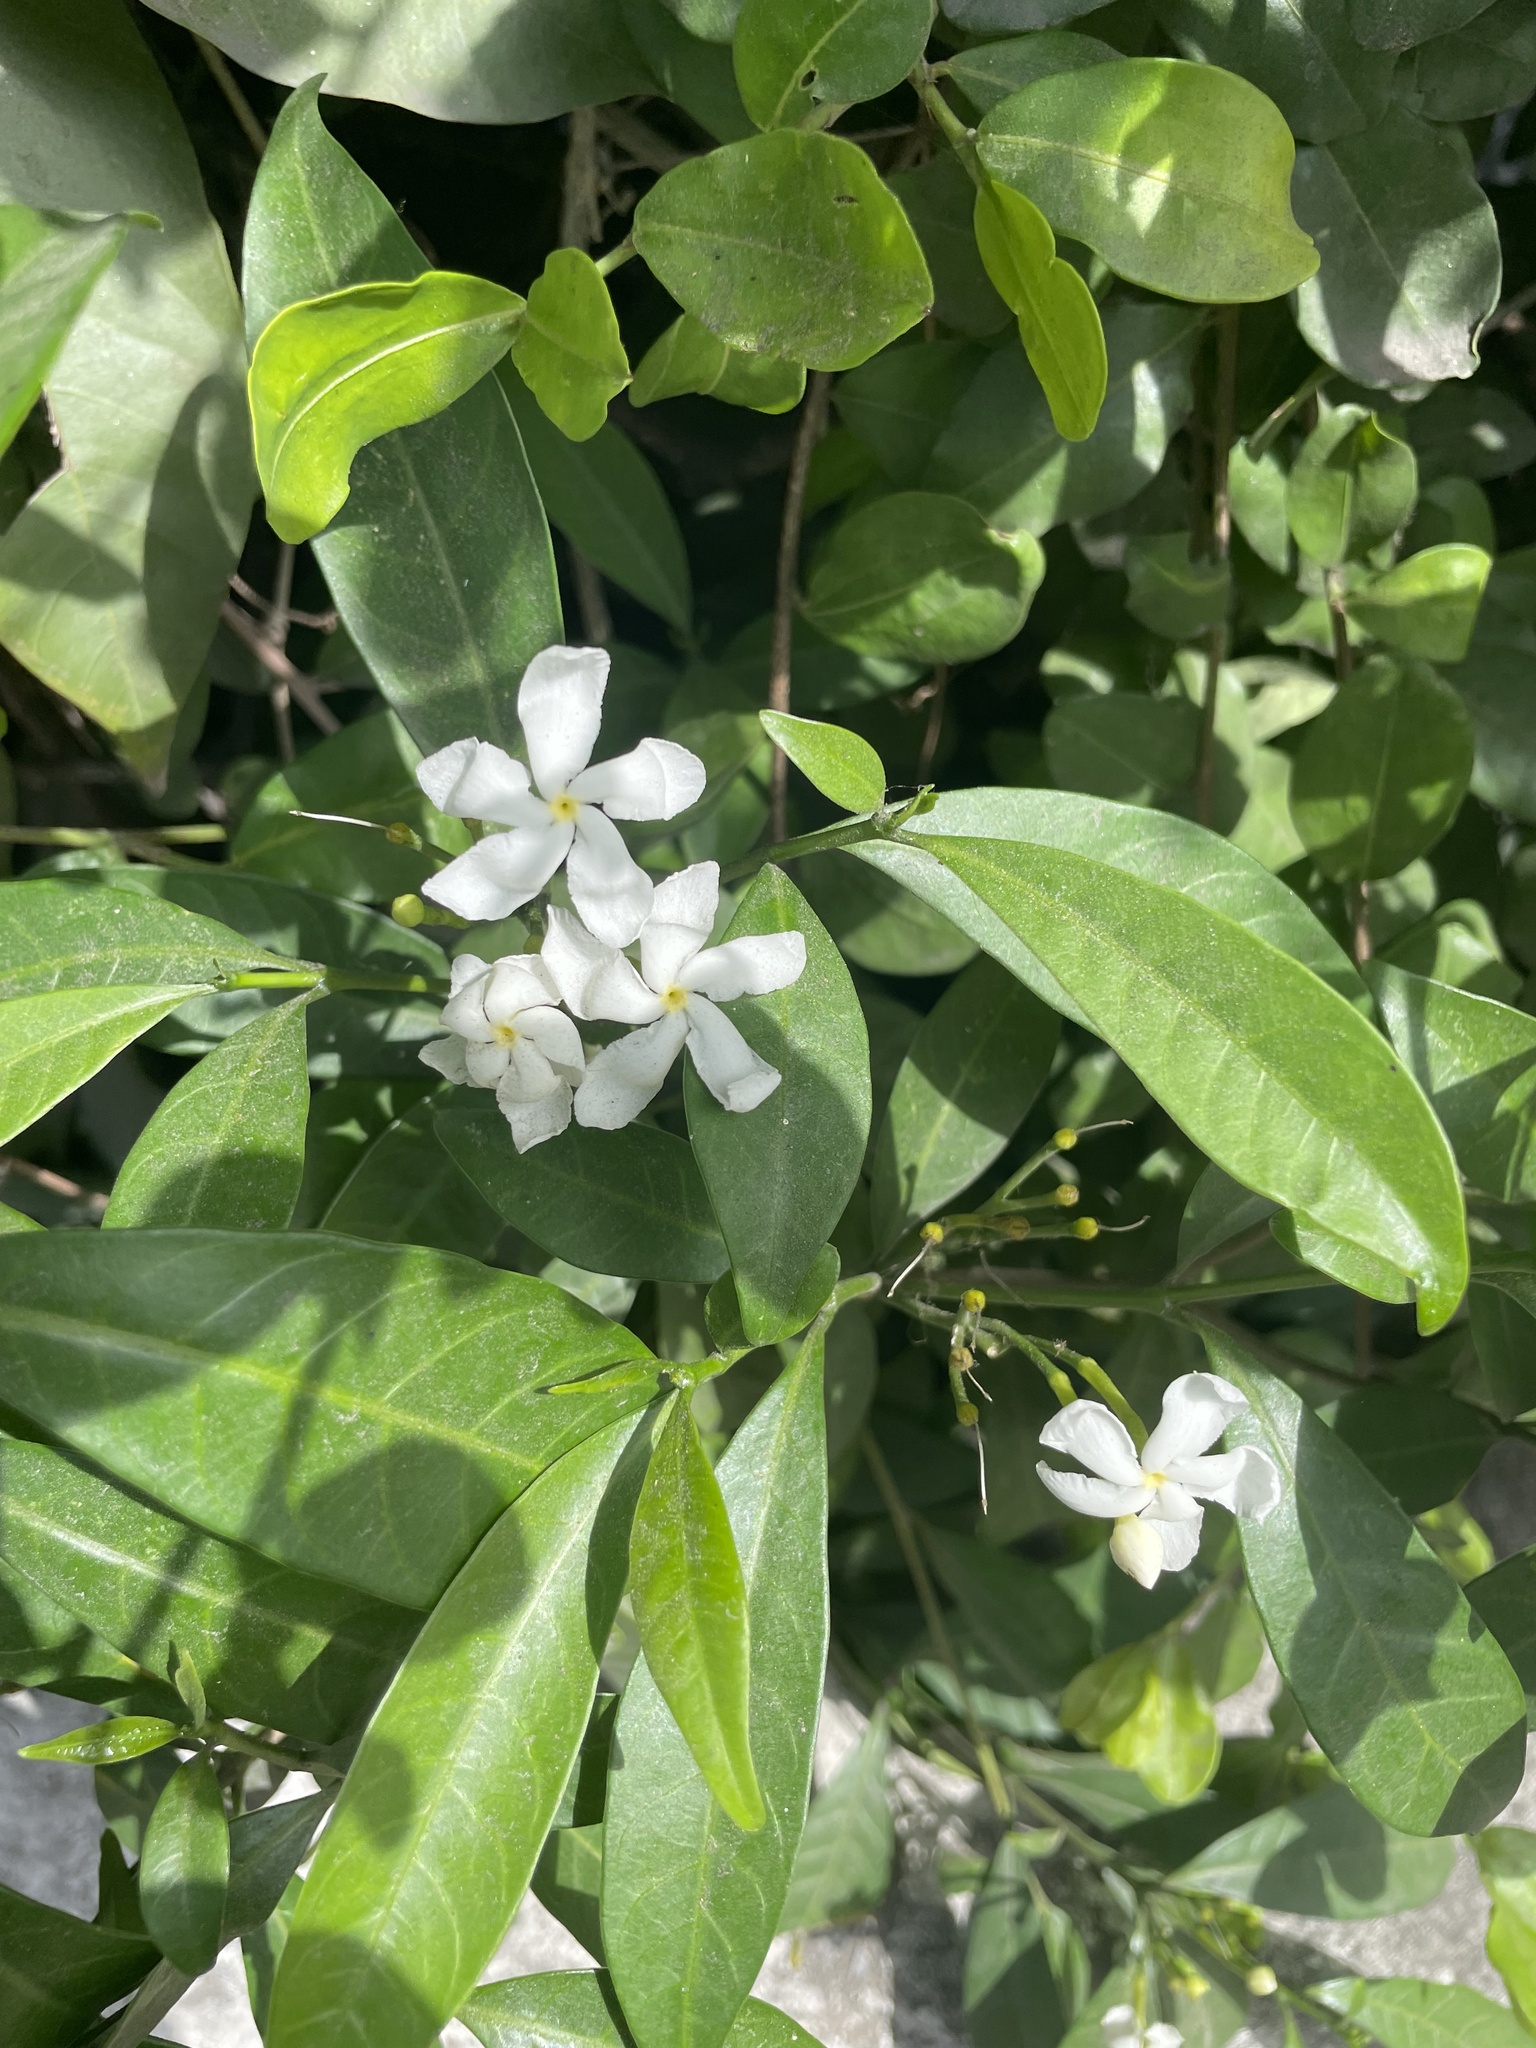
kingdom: Plantae
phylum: Tracheophyta
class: Magnoliopsida
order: Gentianales
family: Apocynaceae
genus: Tabernaemontana
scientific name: Tabernaemontana divaricata
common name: Pinwheelflower
